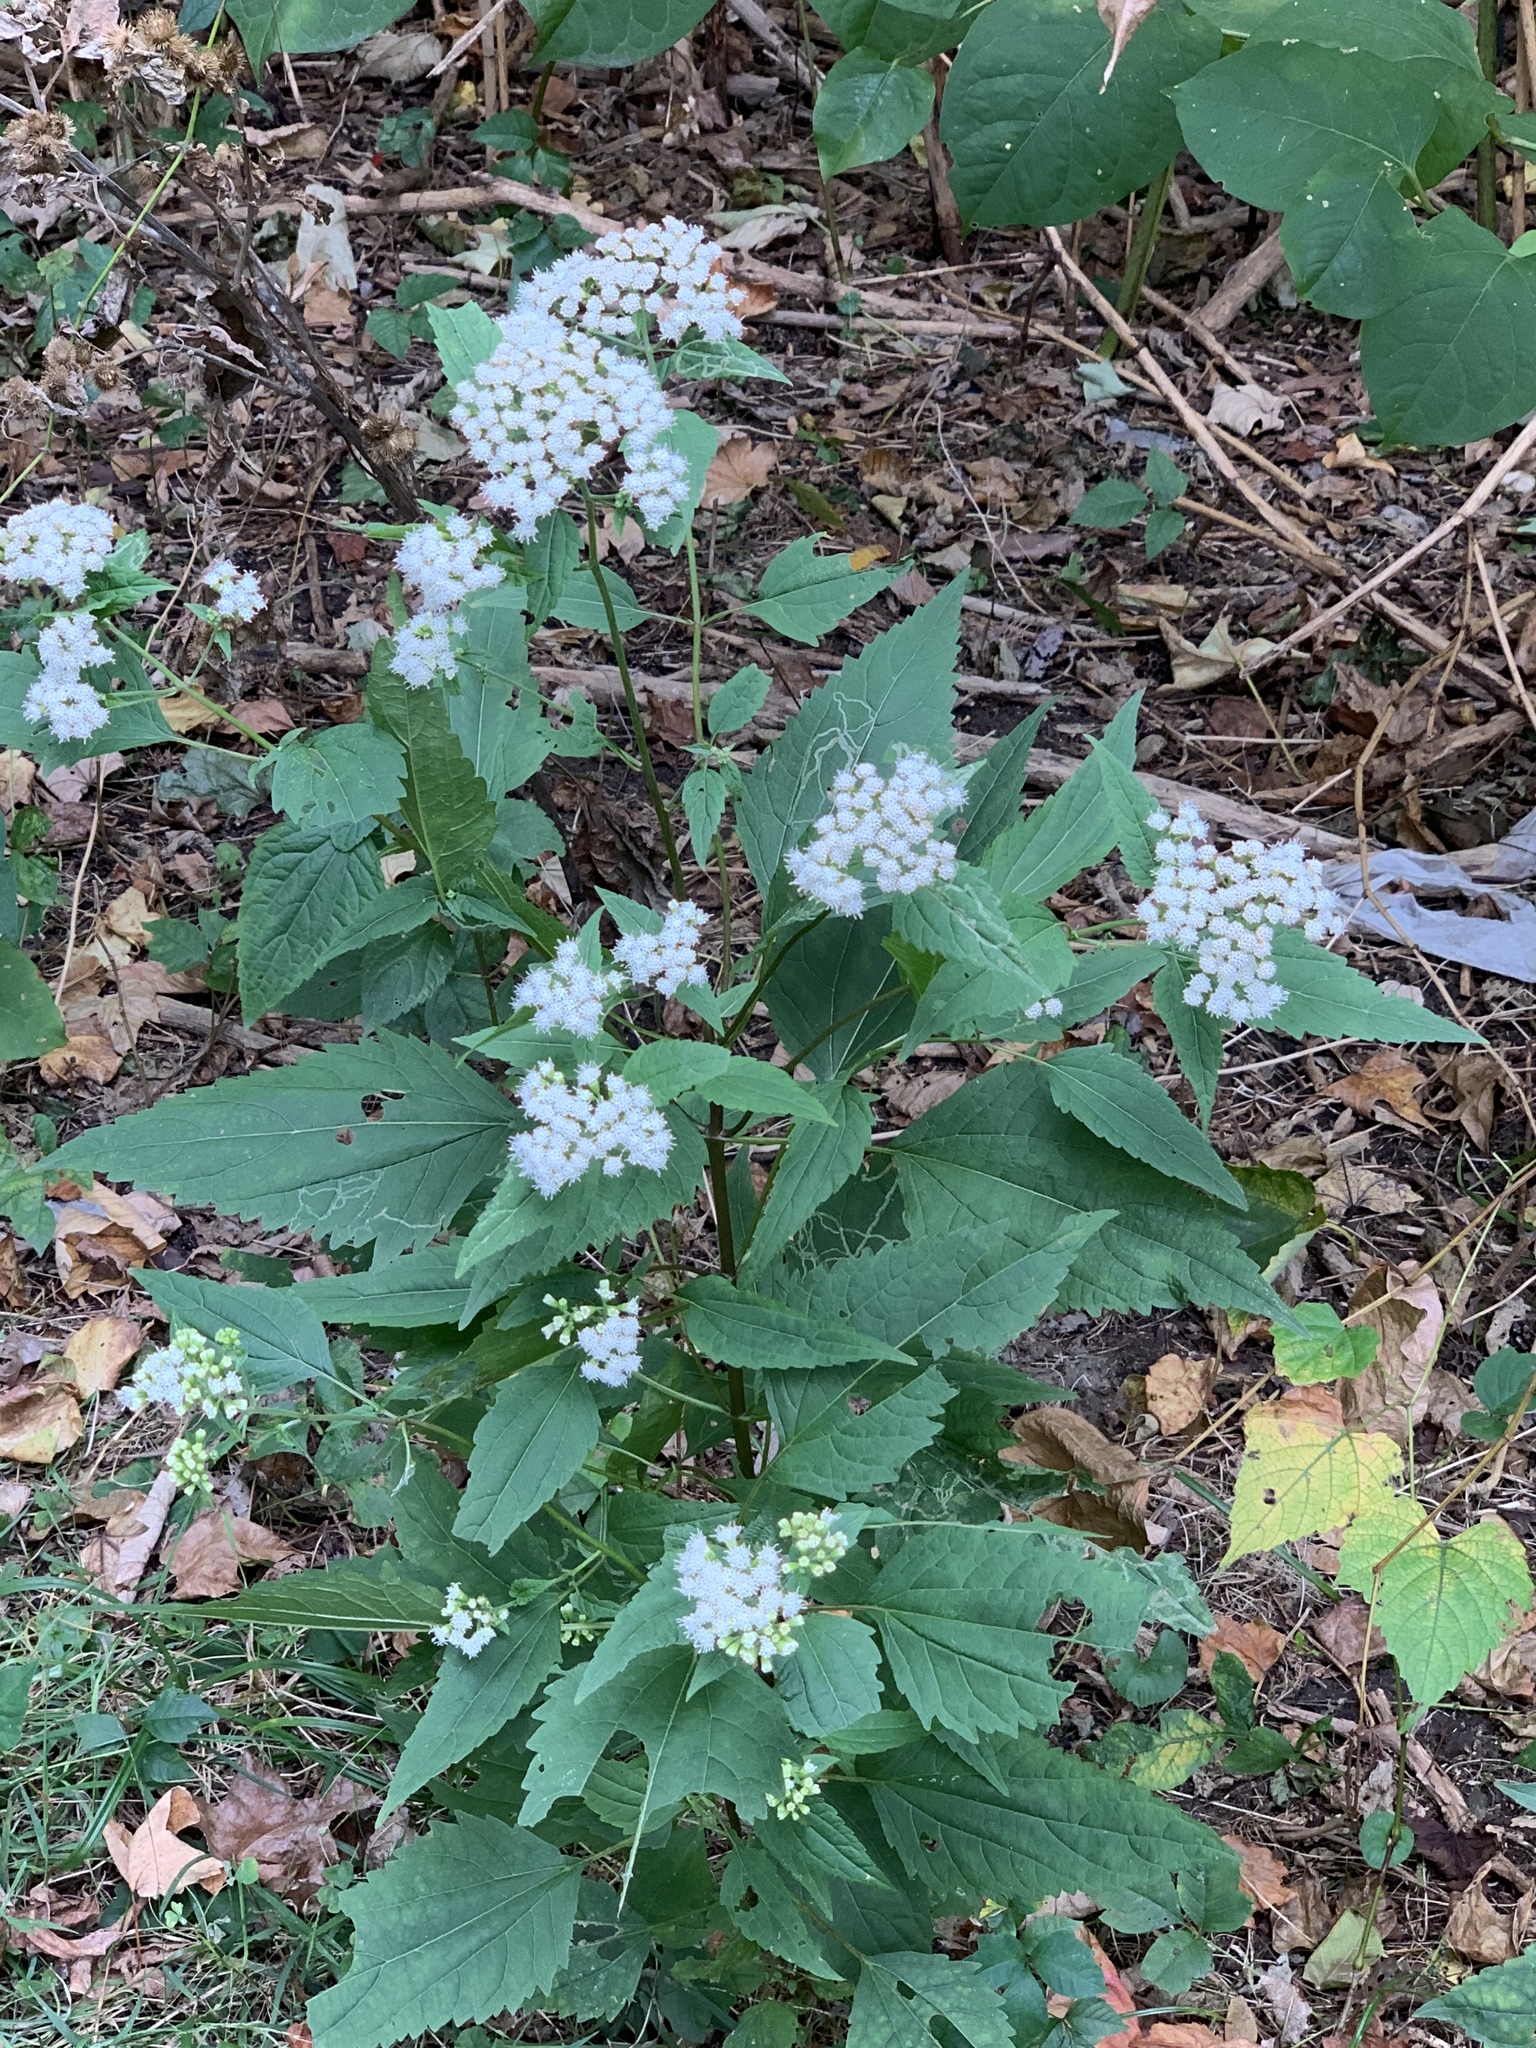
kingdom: Plantae
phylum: Tracheophyta
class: Magnoliopsida
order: Asterales
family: Asteraceae
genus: Ageratina
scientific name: Ageratina altissima
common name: White snakeroot
